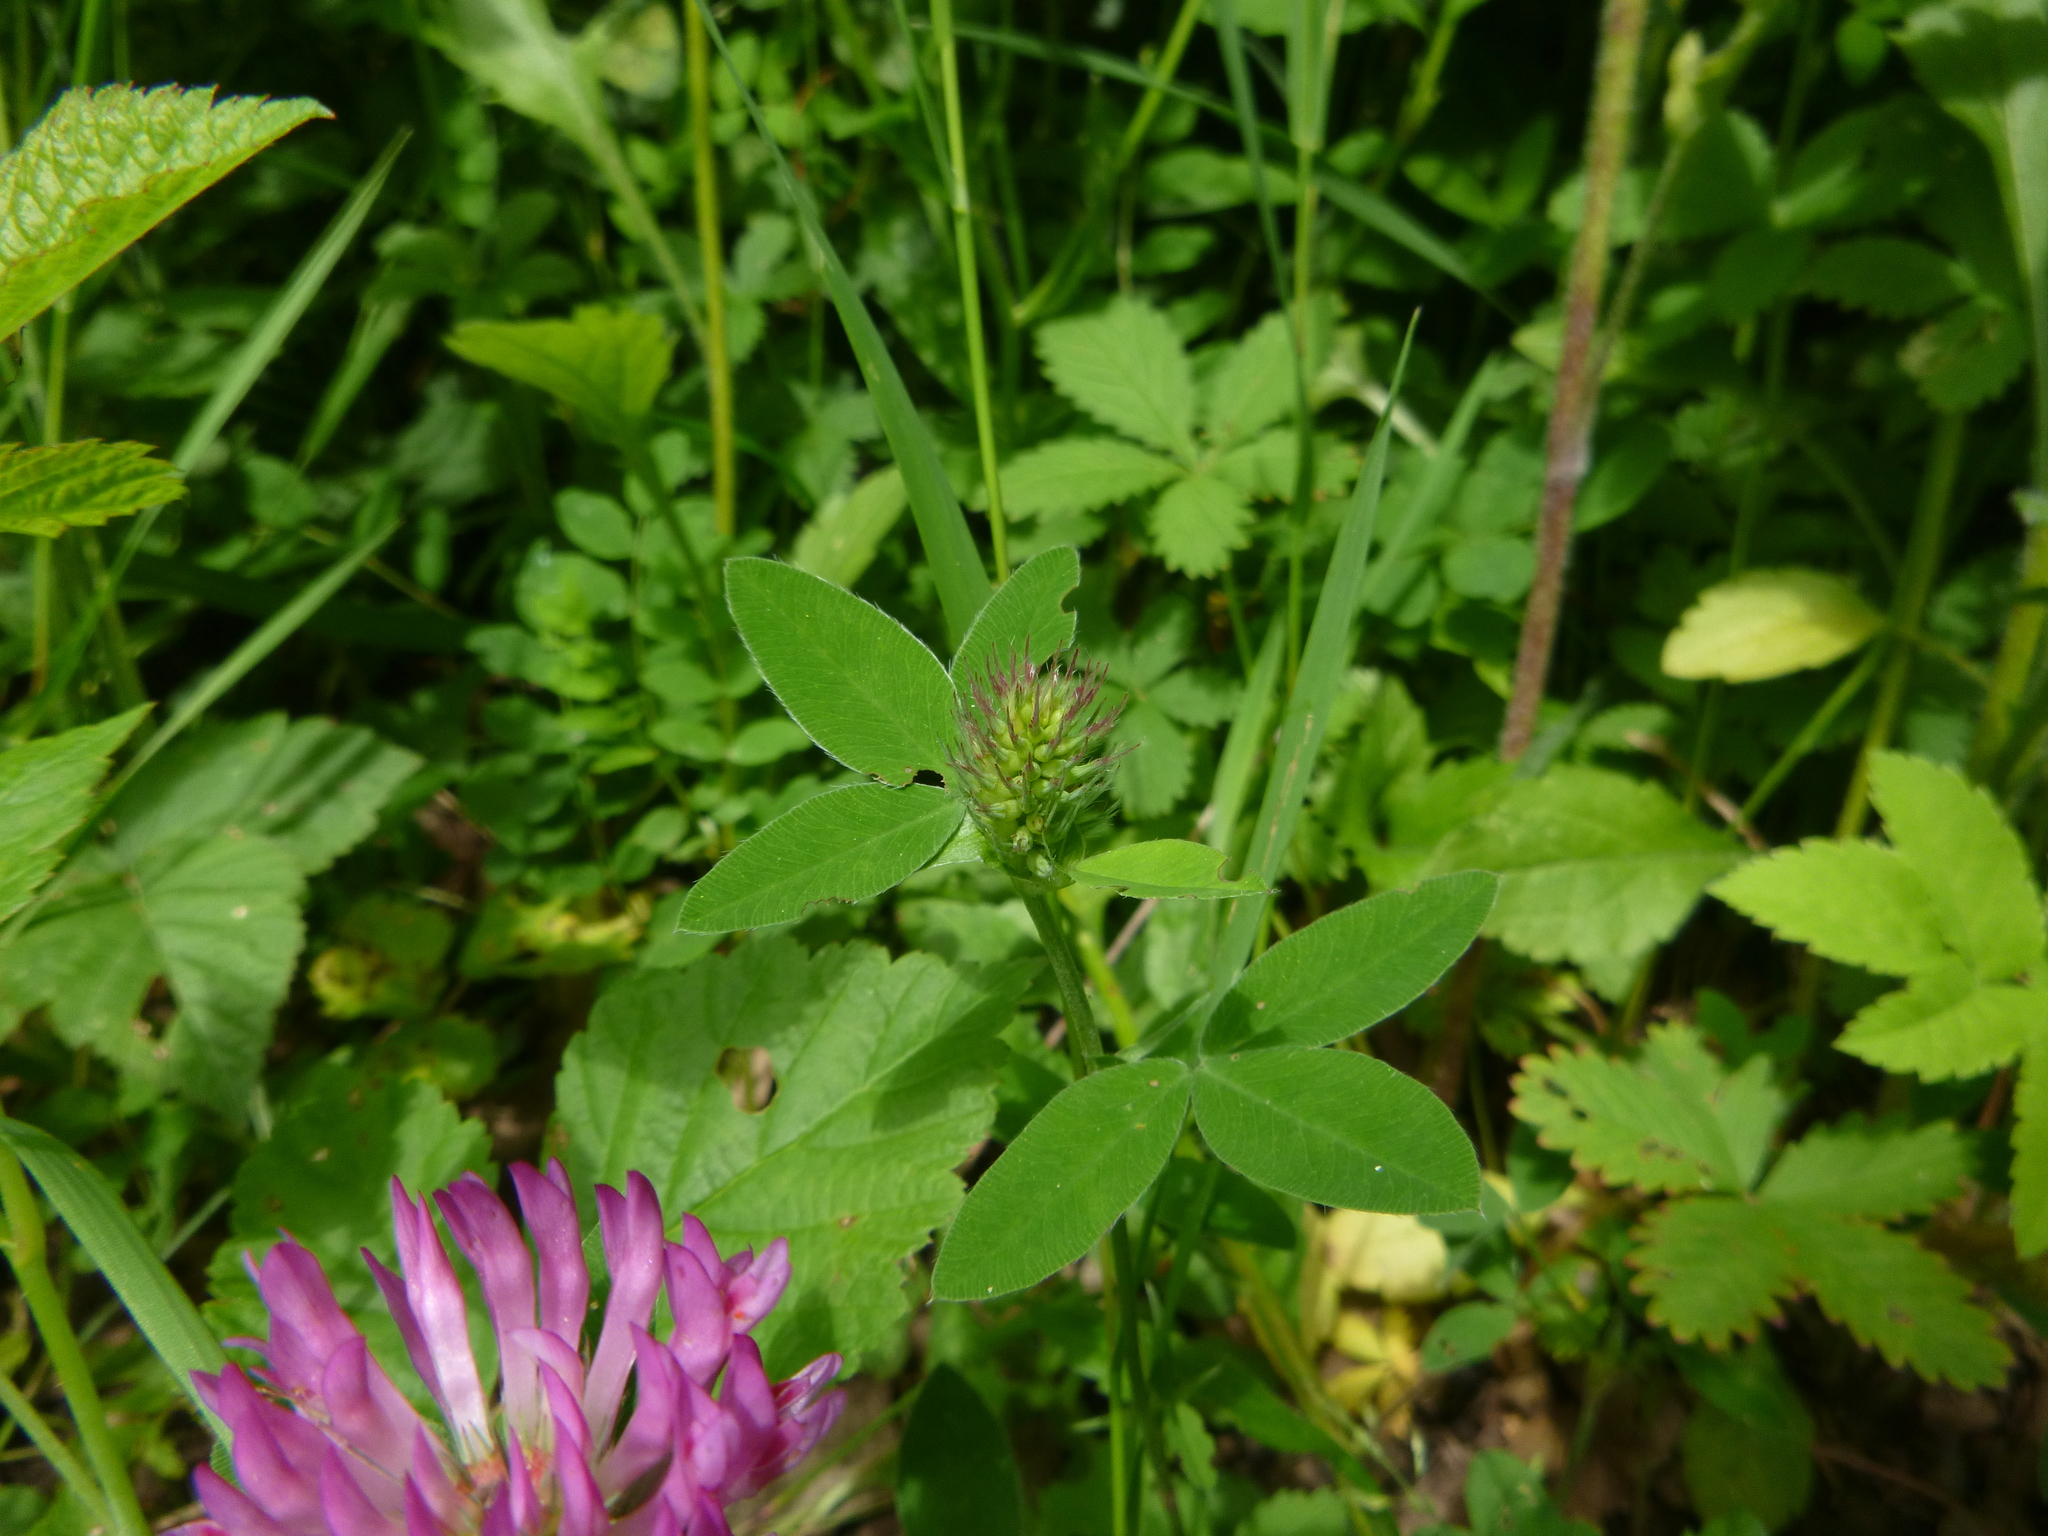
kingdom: Plantae
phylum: Tracheophyta
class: Magnoliopsida
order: Fabales
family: Fabaceae
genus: Trifolium
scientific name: Trifolium medium
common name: Zigzag clover
